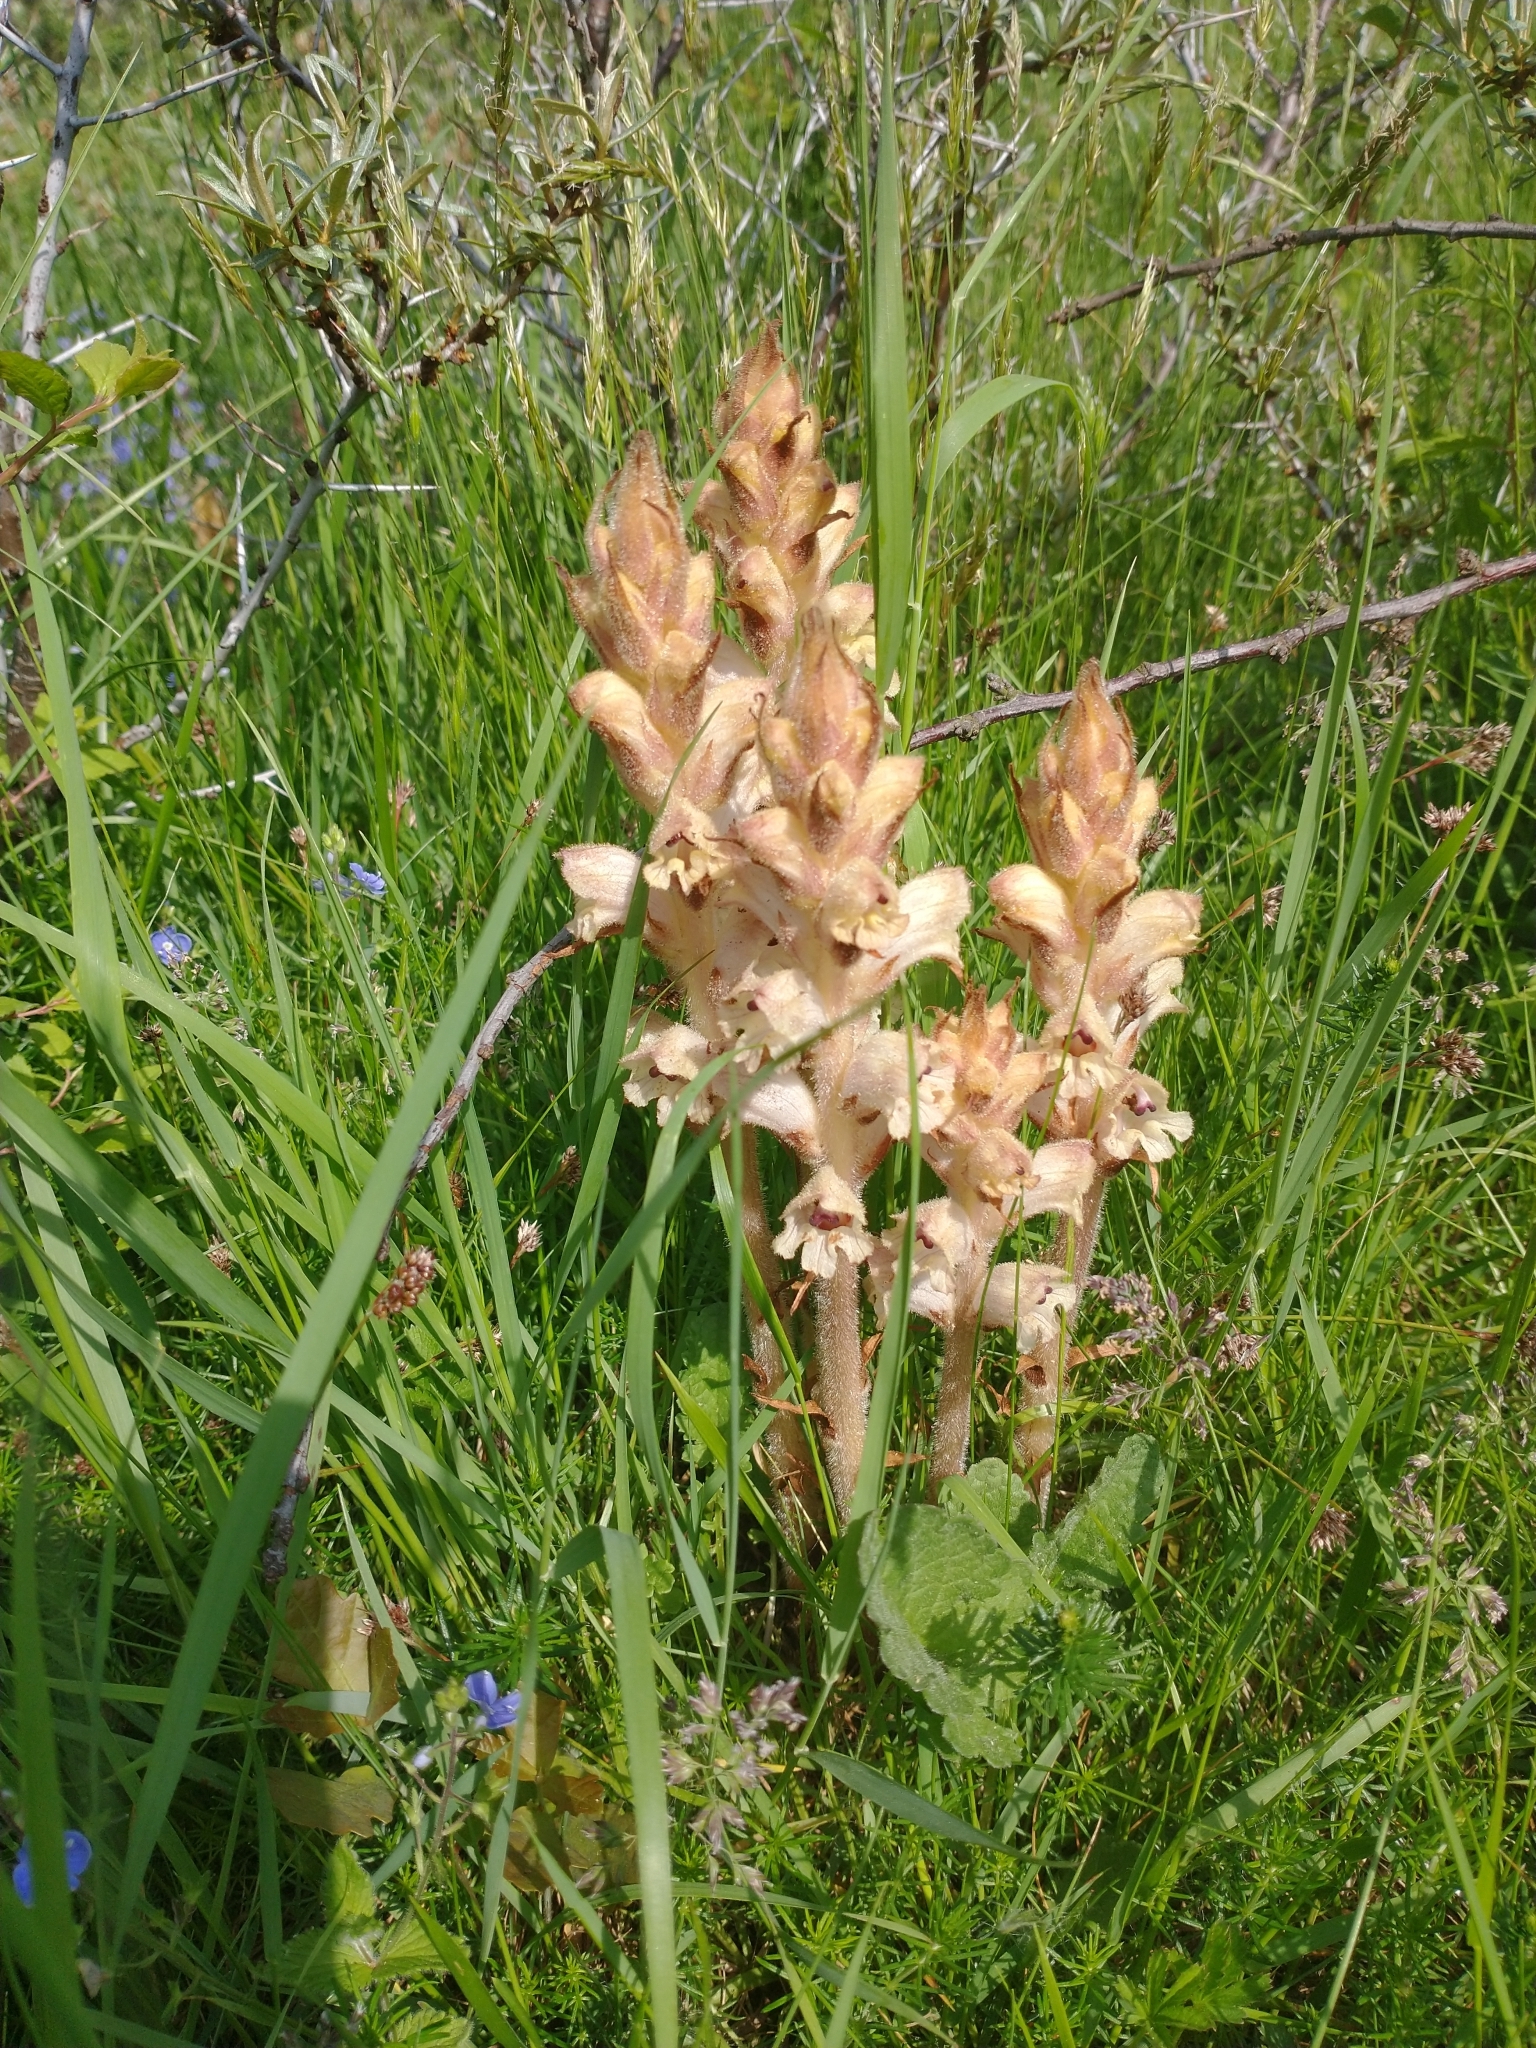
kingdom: Plantae
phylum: Tracheophyta
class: Magnoliopsida
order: Lamiales
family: Orobanchaceae
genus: Orobanche
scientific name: Orobanche caryophyllacea
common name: Bedstraw broomrape
